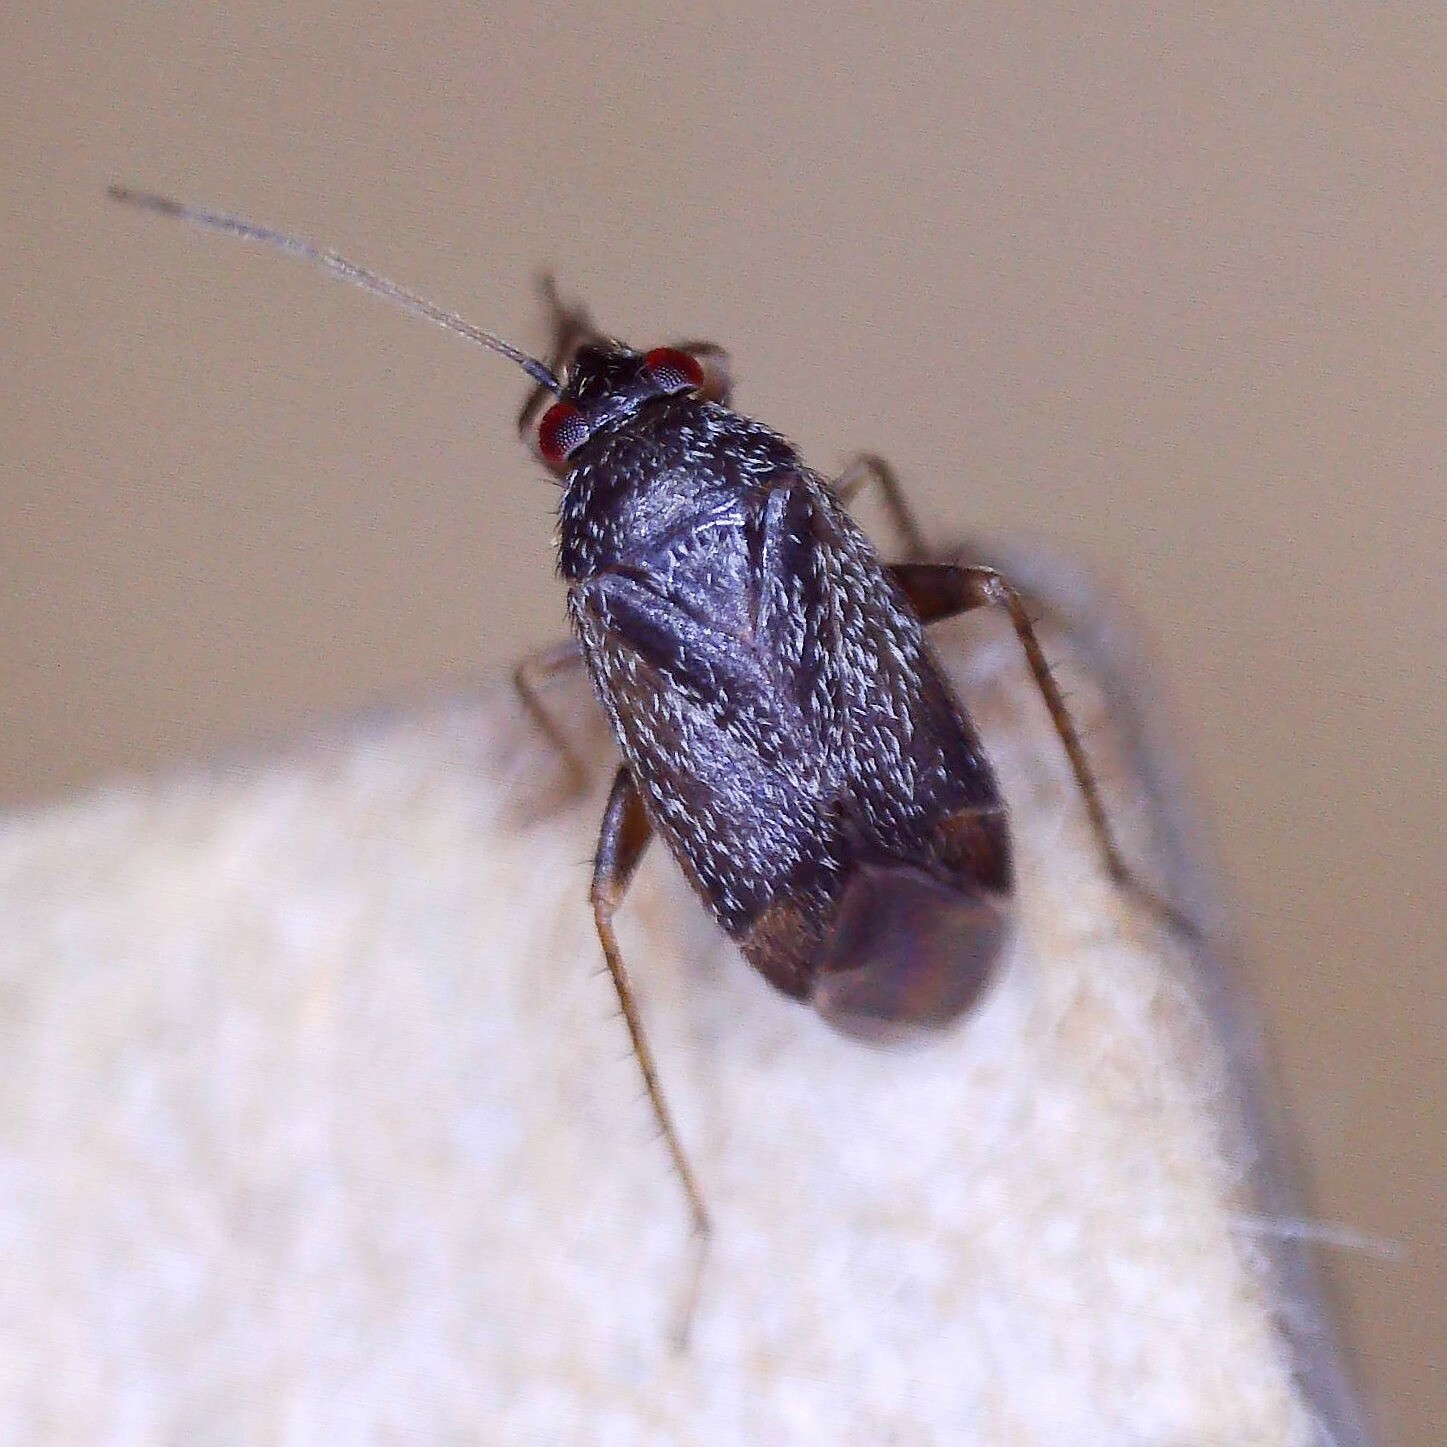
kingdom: Animalia
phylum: Arthropoda
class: Insecta
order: Hemiptera
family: Miridae
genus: Phoenicocoris
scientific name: Phoenicocoris obscurellus
